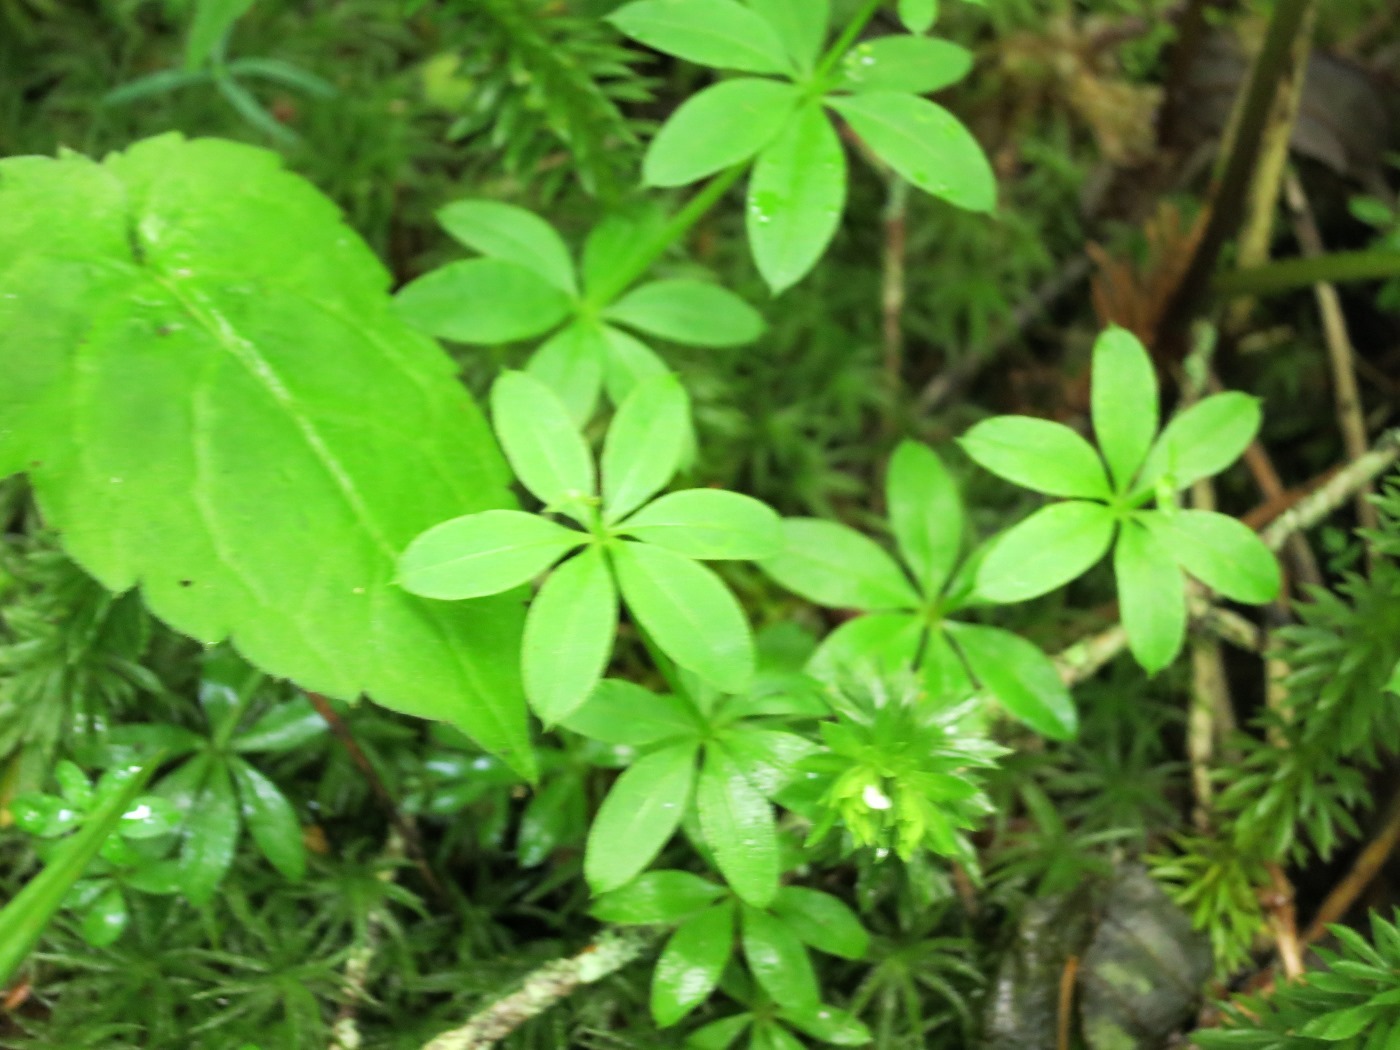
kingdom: Plantae
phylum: Tracheophyta
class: Magnoliopsida
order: Gentianales
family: Rubiaceae
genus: Galium
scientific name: Galium triflorum
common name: Fragrant bedstraw
